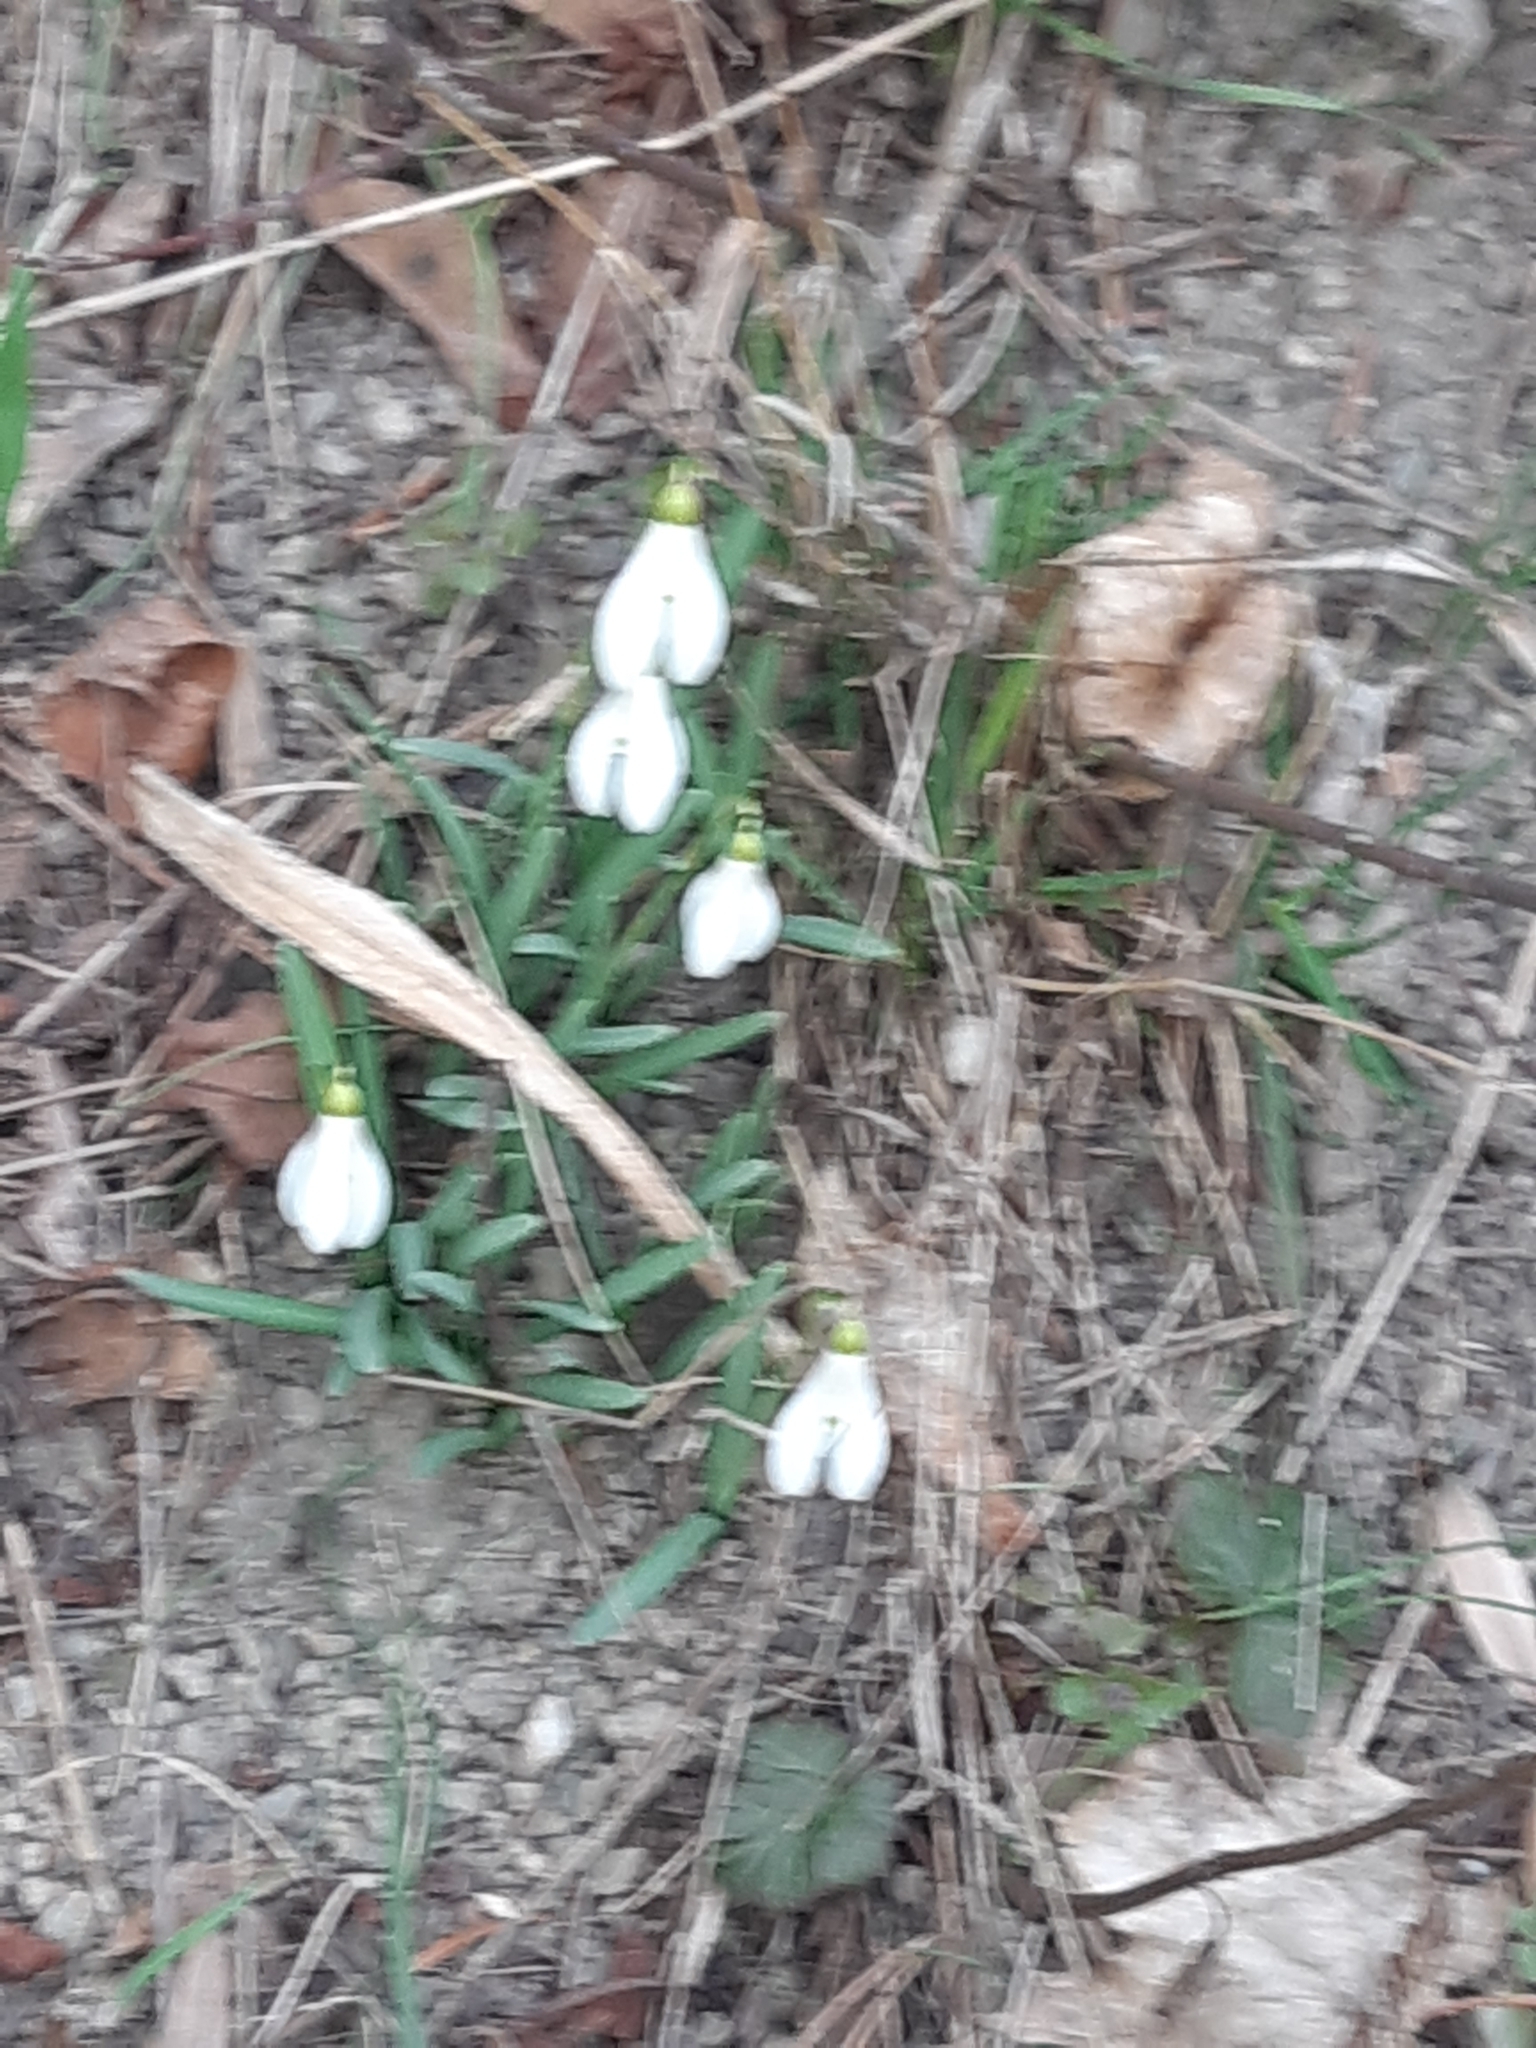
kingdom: Plantae
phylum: Tracheophyta
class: Liliopsida
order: Asparagales
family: Amaryllidaceae
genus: Galanthus
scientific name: Galanthus nivalis
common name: Snowdrop
